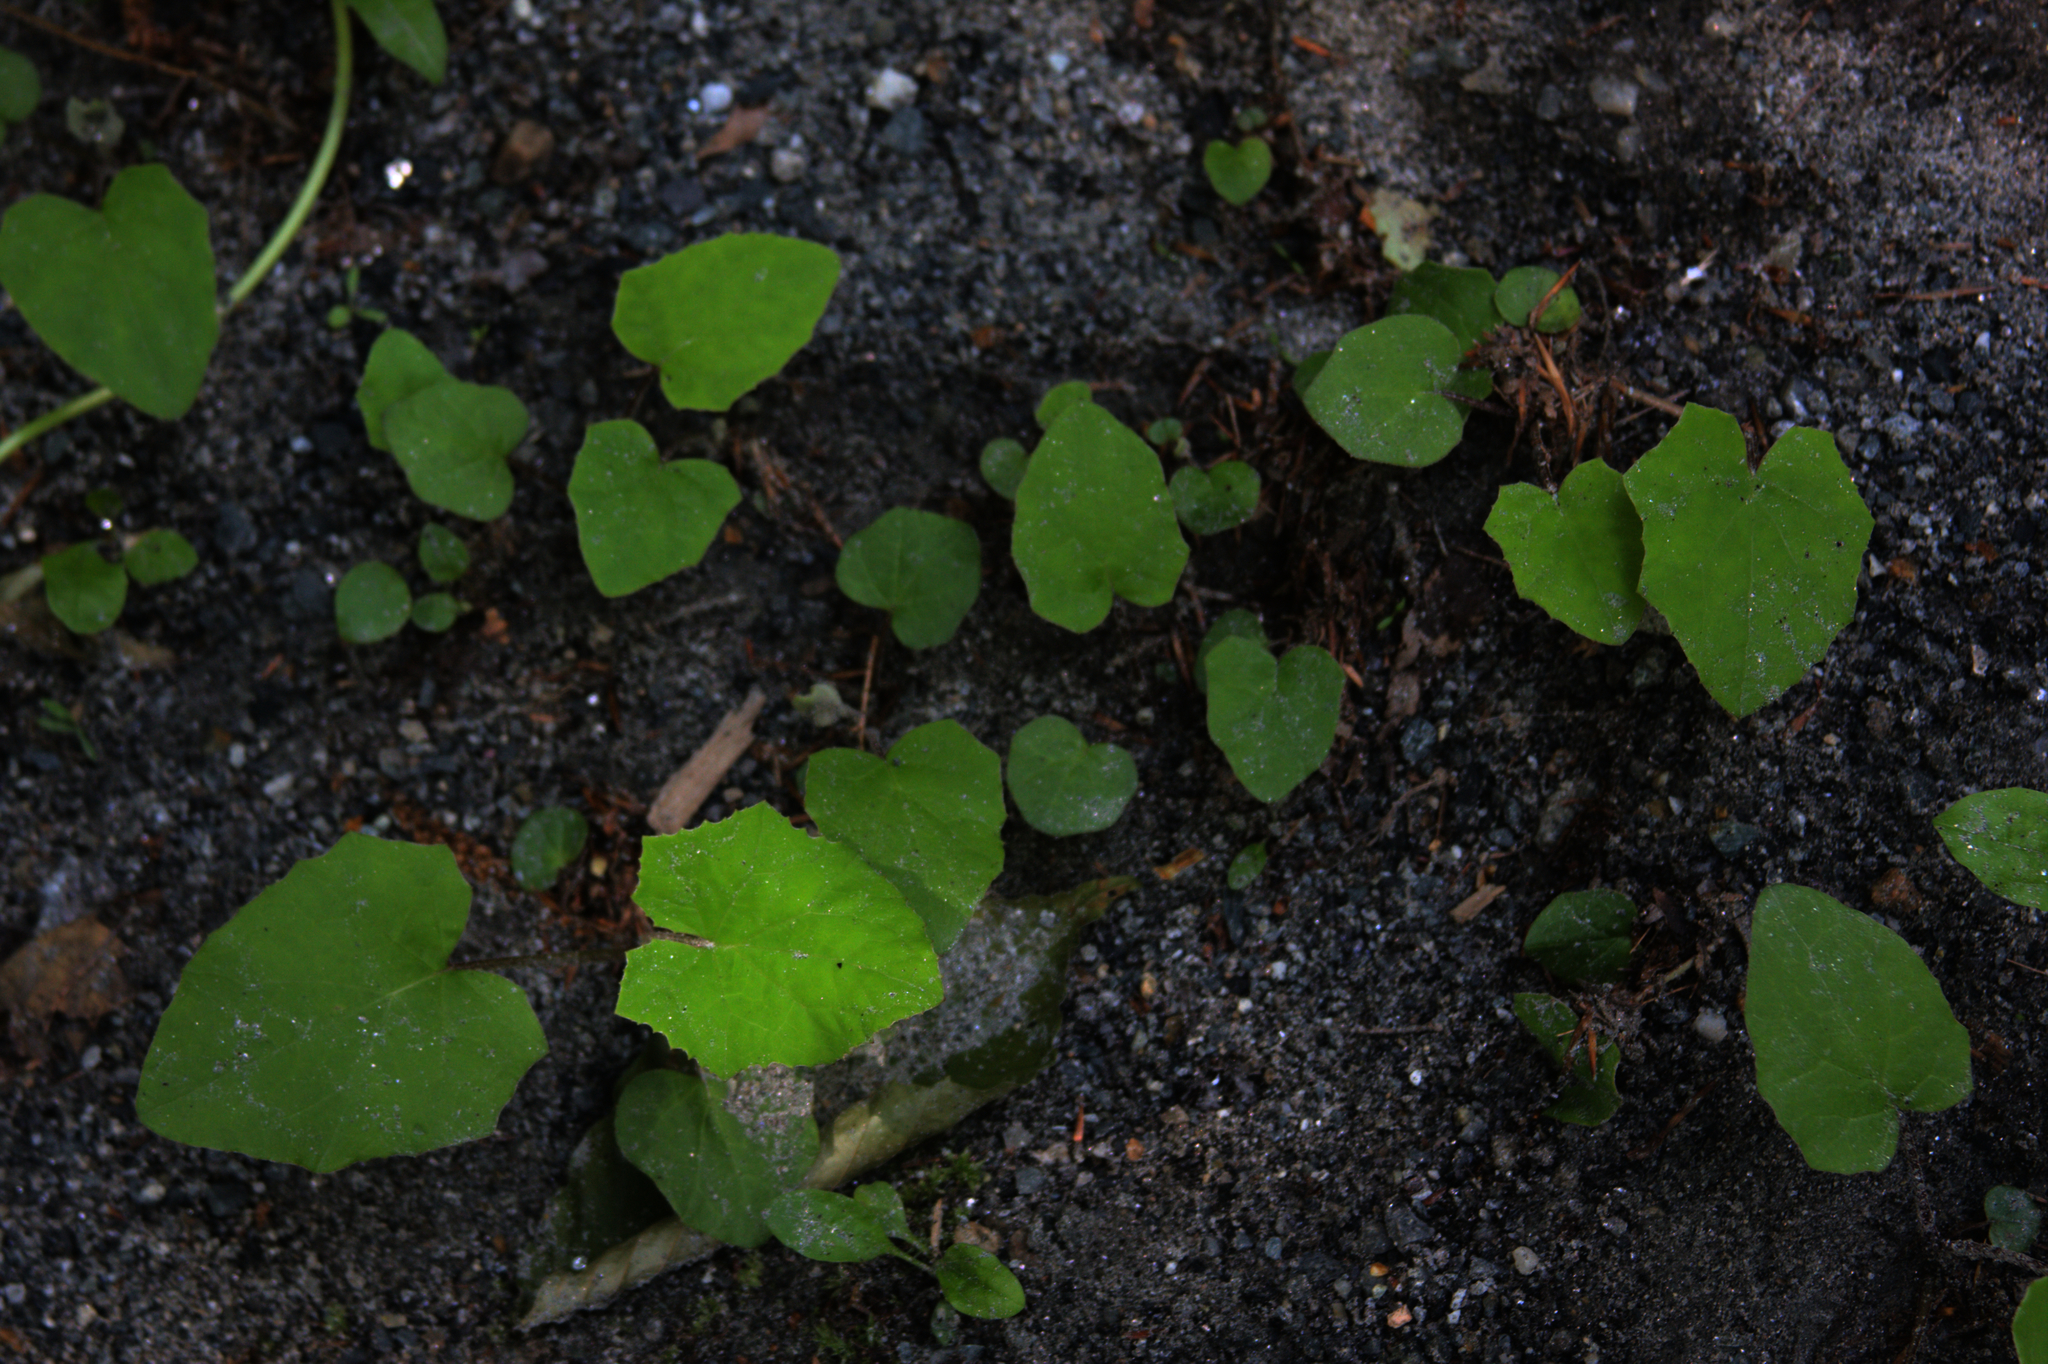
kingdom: Plantae
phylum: Tracheophyta
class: Magnoliopsida
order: Asterales
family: Asteraceae
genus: Tussilago
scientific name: Tussilago farfara
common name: Coltsfoot
